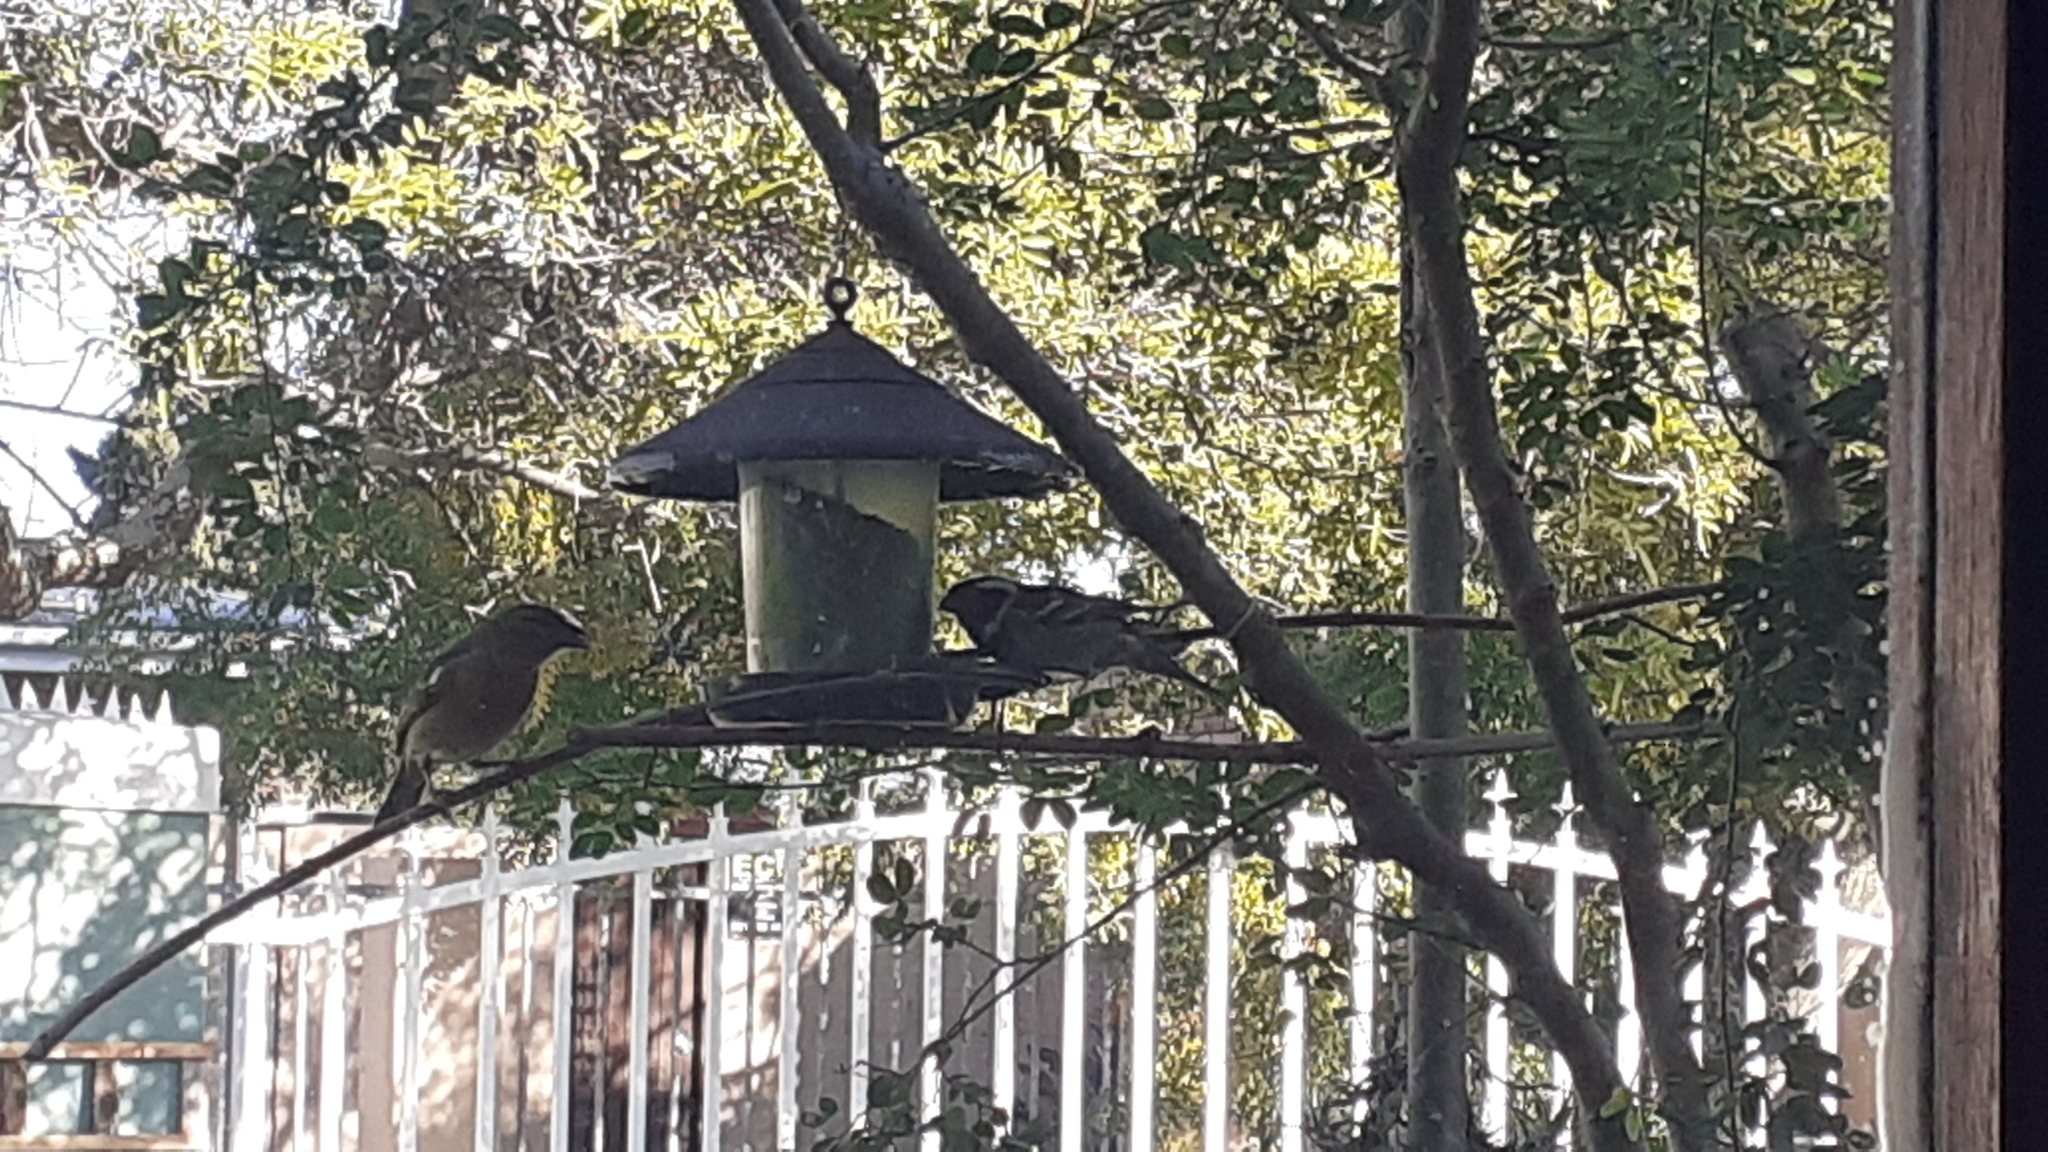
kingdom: Animalia
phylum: Chordata
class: Aves
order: Passeriformes
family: Passeridae
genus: Passer
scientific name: Passer melanurus
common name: Cape sparrow
